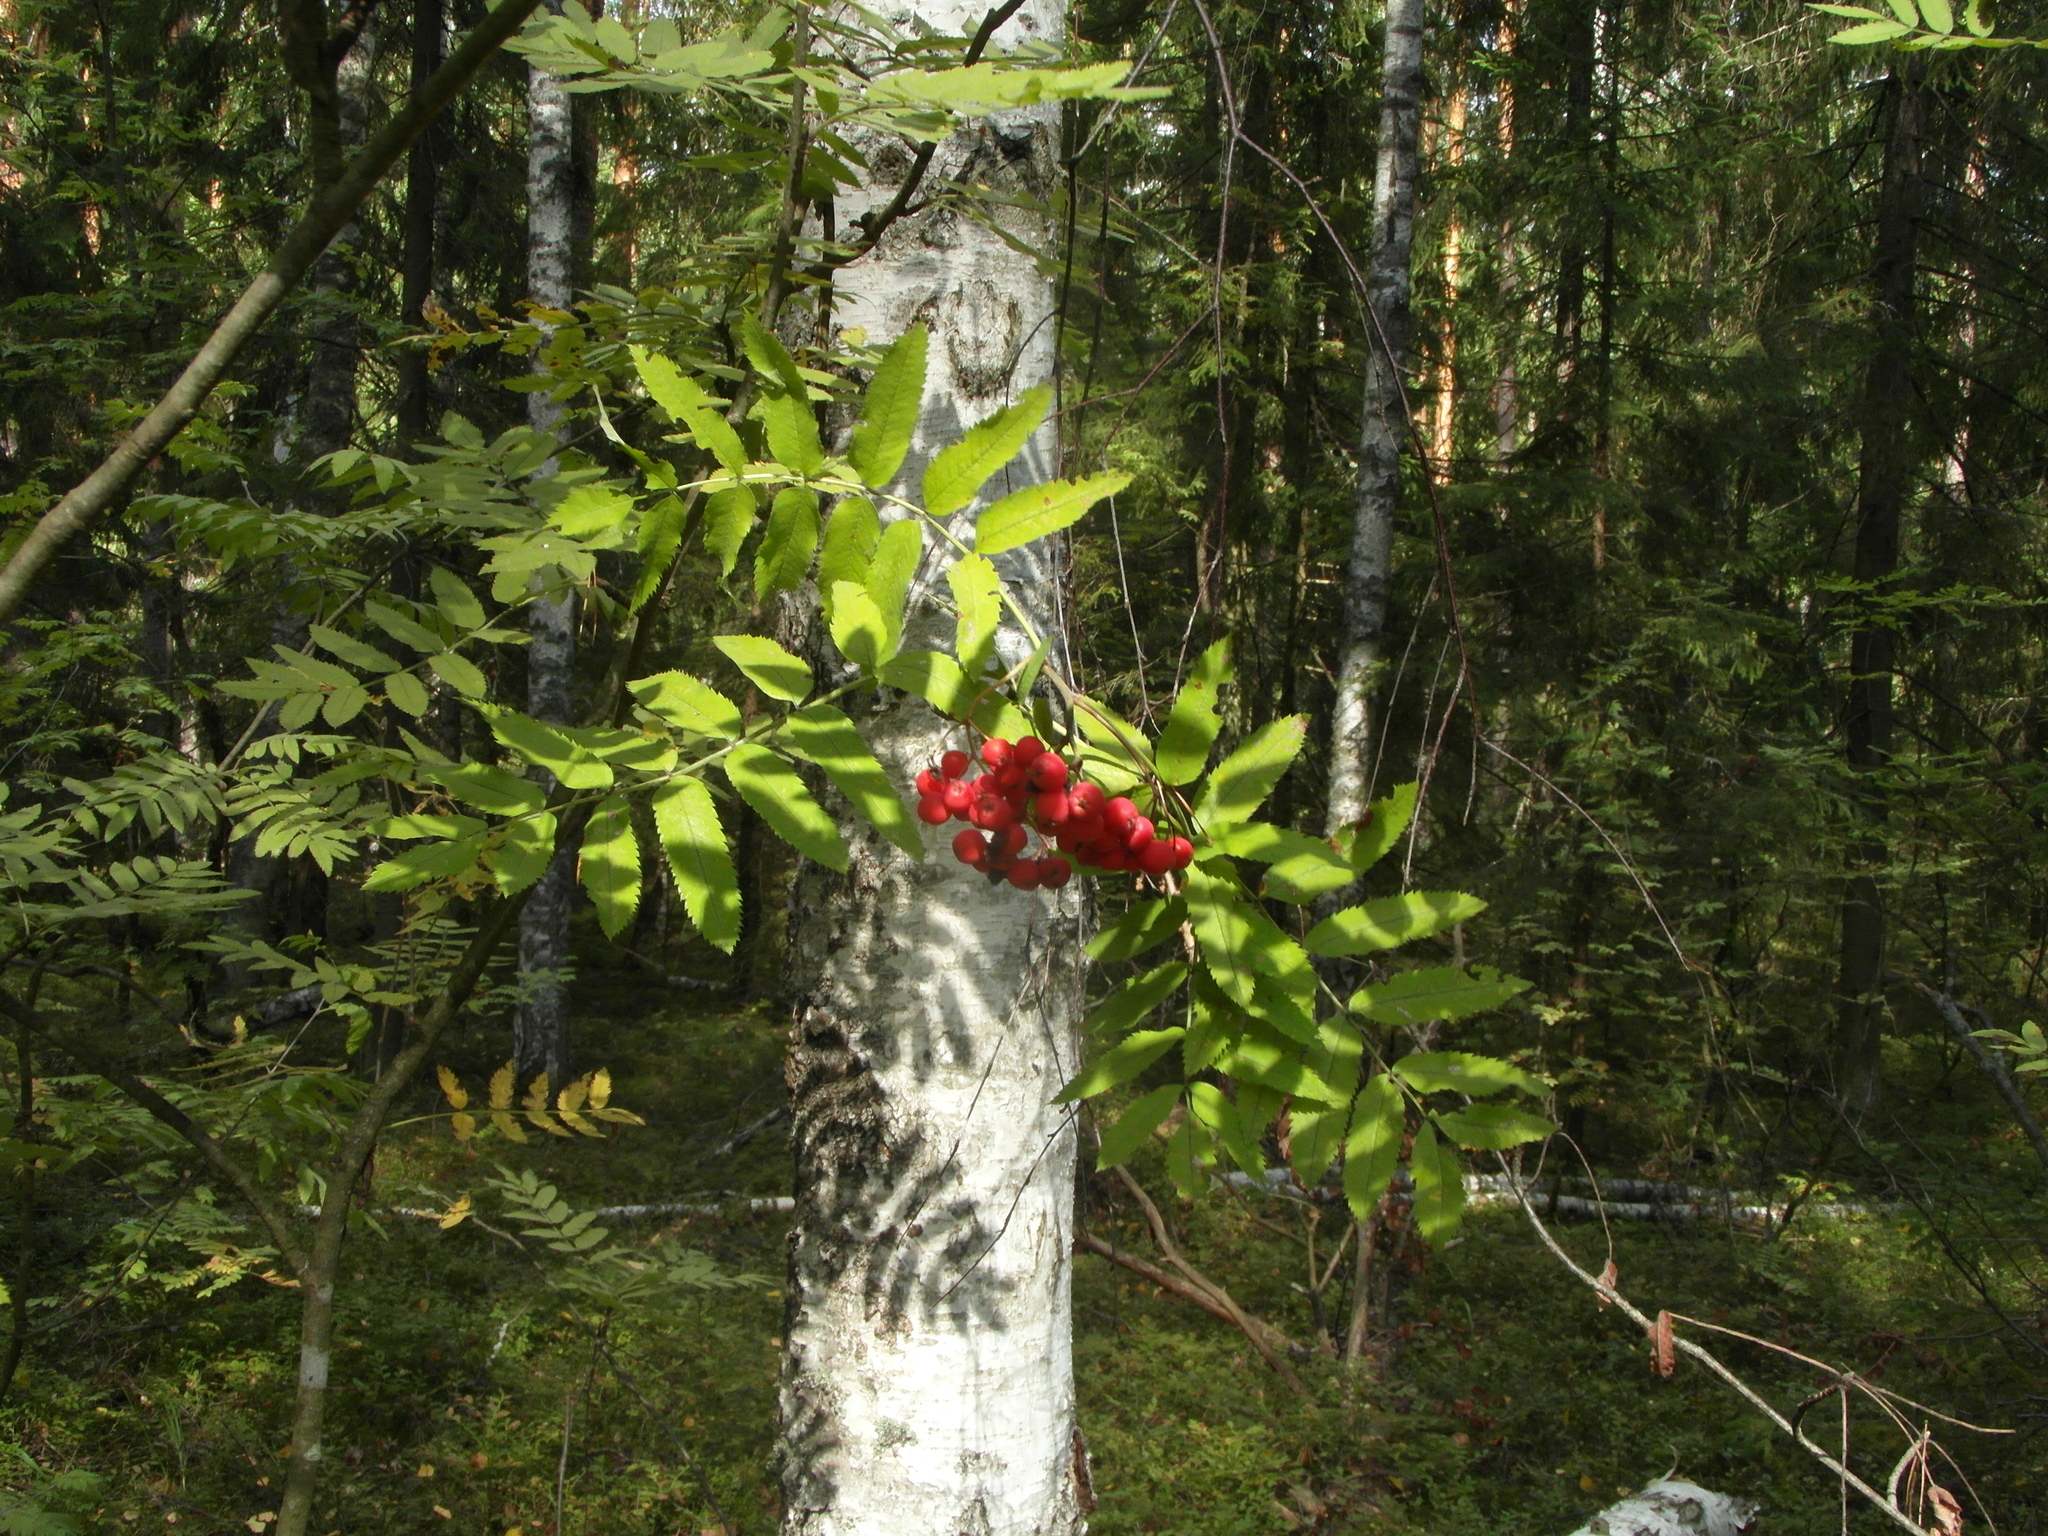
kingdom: Plantae
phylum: Tracheophyta
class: Magnoliopsida
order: Rosales
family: Rosaceae
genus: Sorbus
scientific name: Sorbus aucuparia
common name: Rowan
